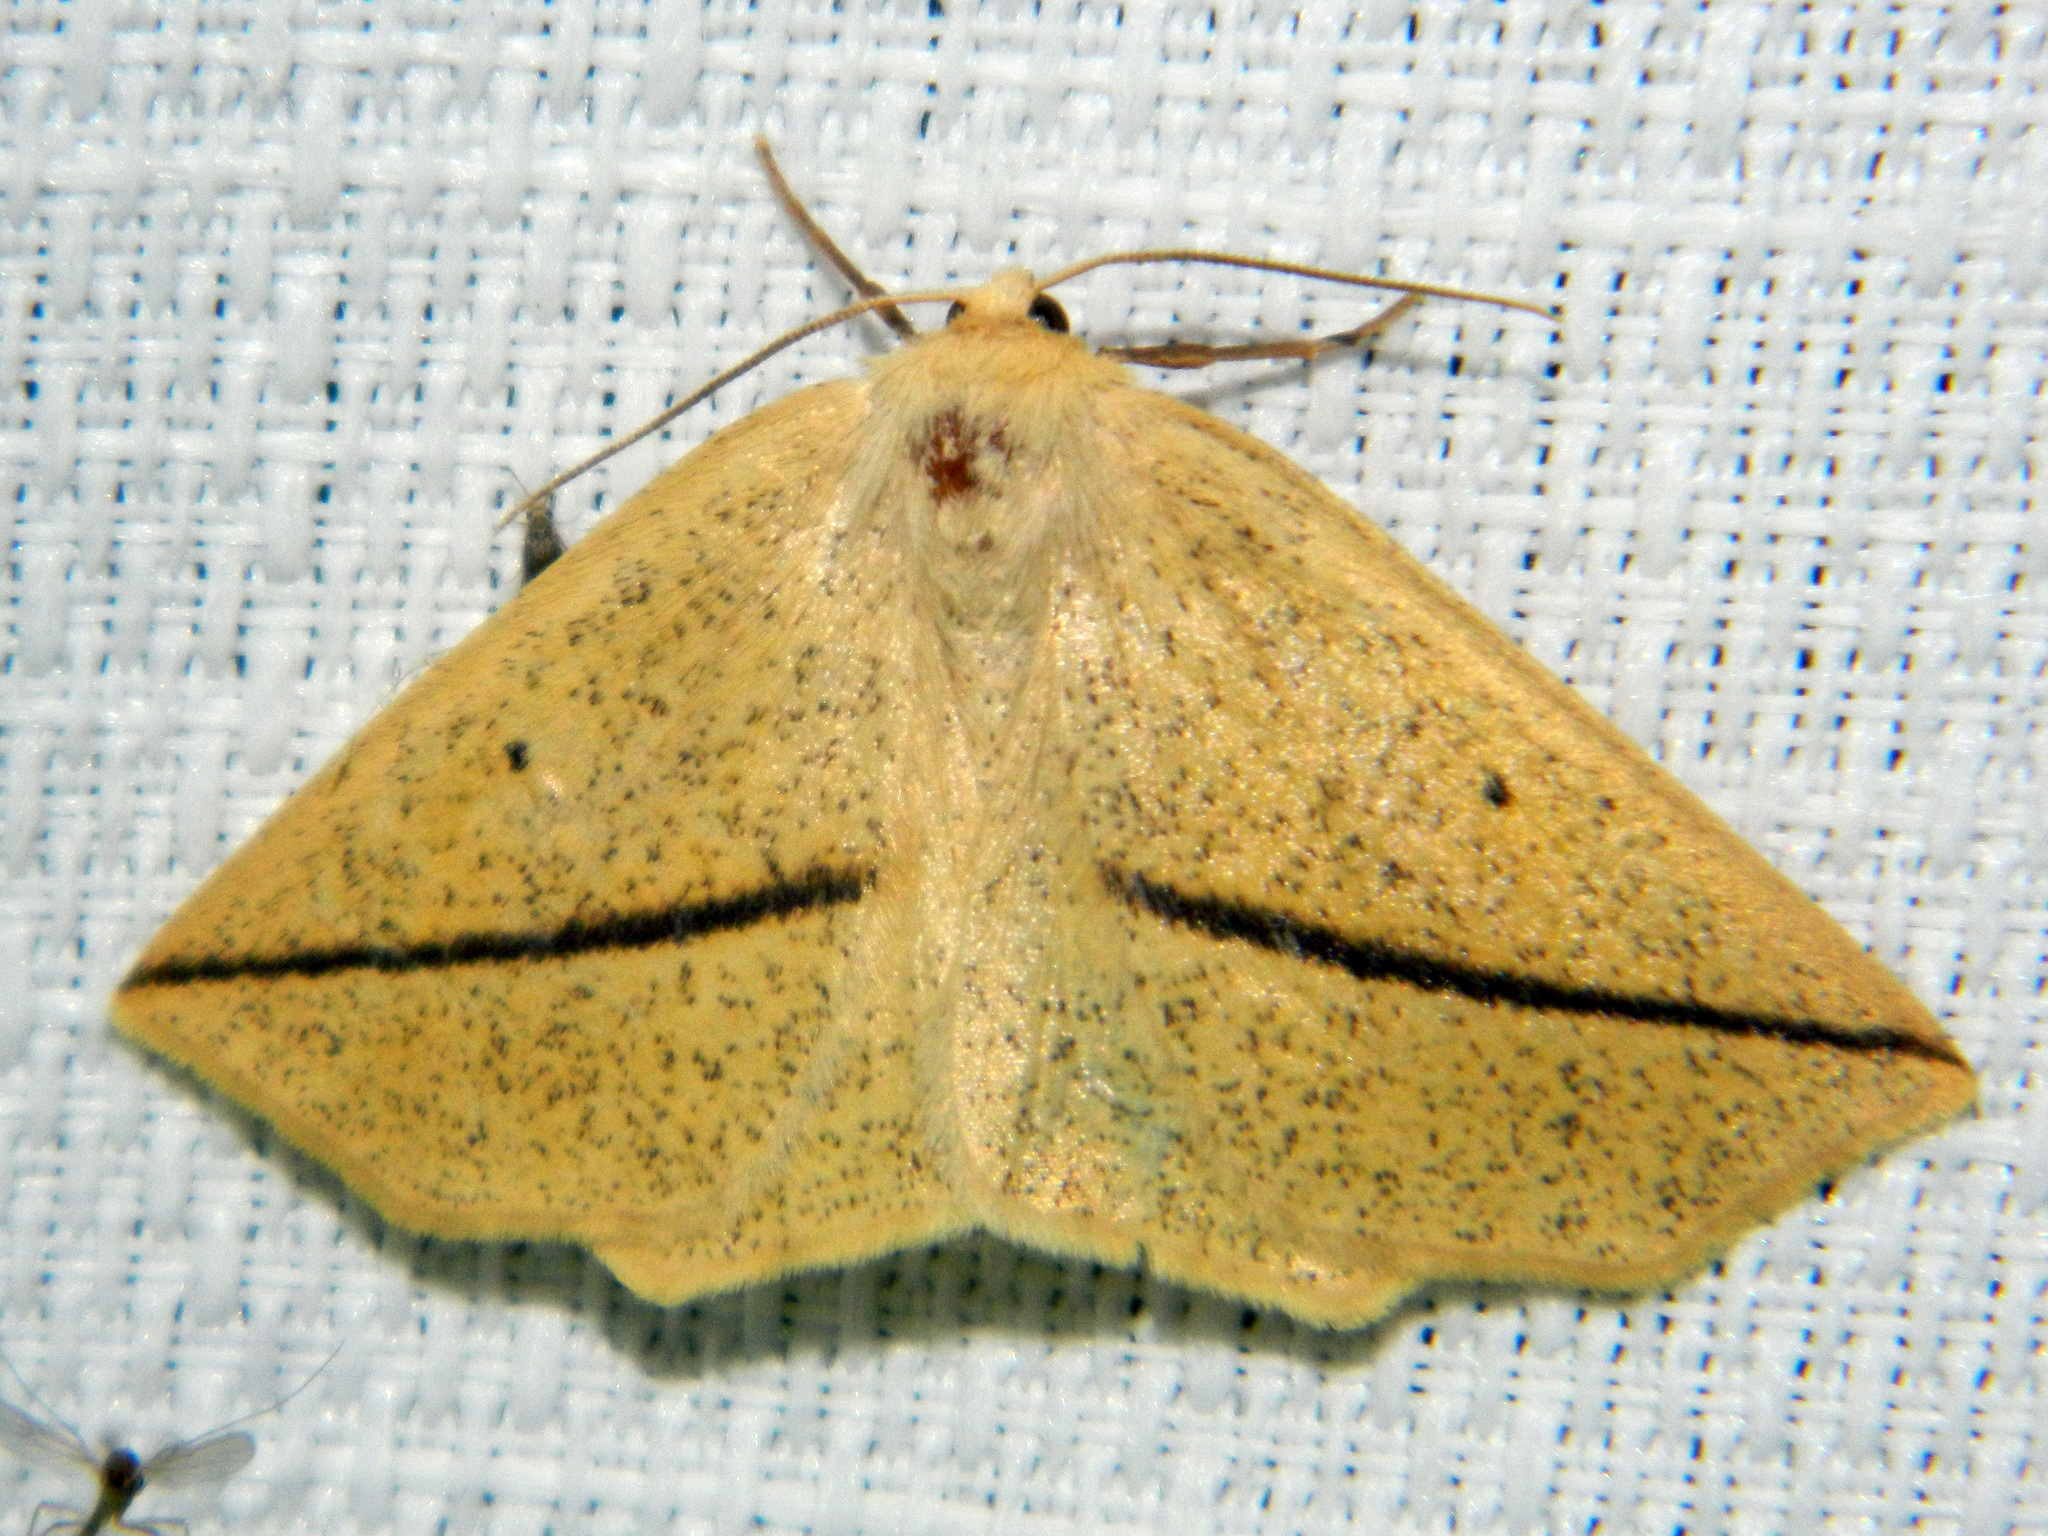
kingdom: Animalia
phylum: Arthropoda
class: Insecta
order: Lepidoptera
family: Geometridae
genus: Tetracis
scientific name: Tetracis crocallata
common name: Yellow slant-line
